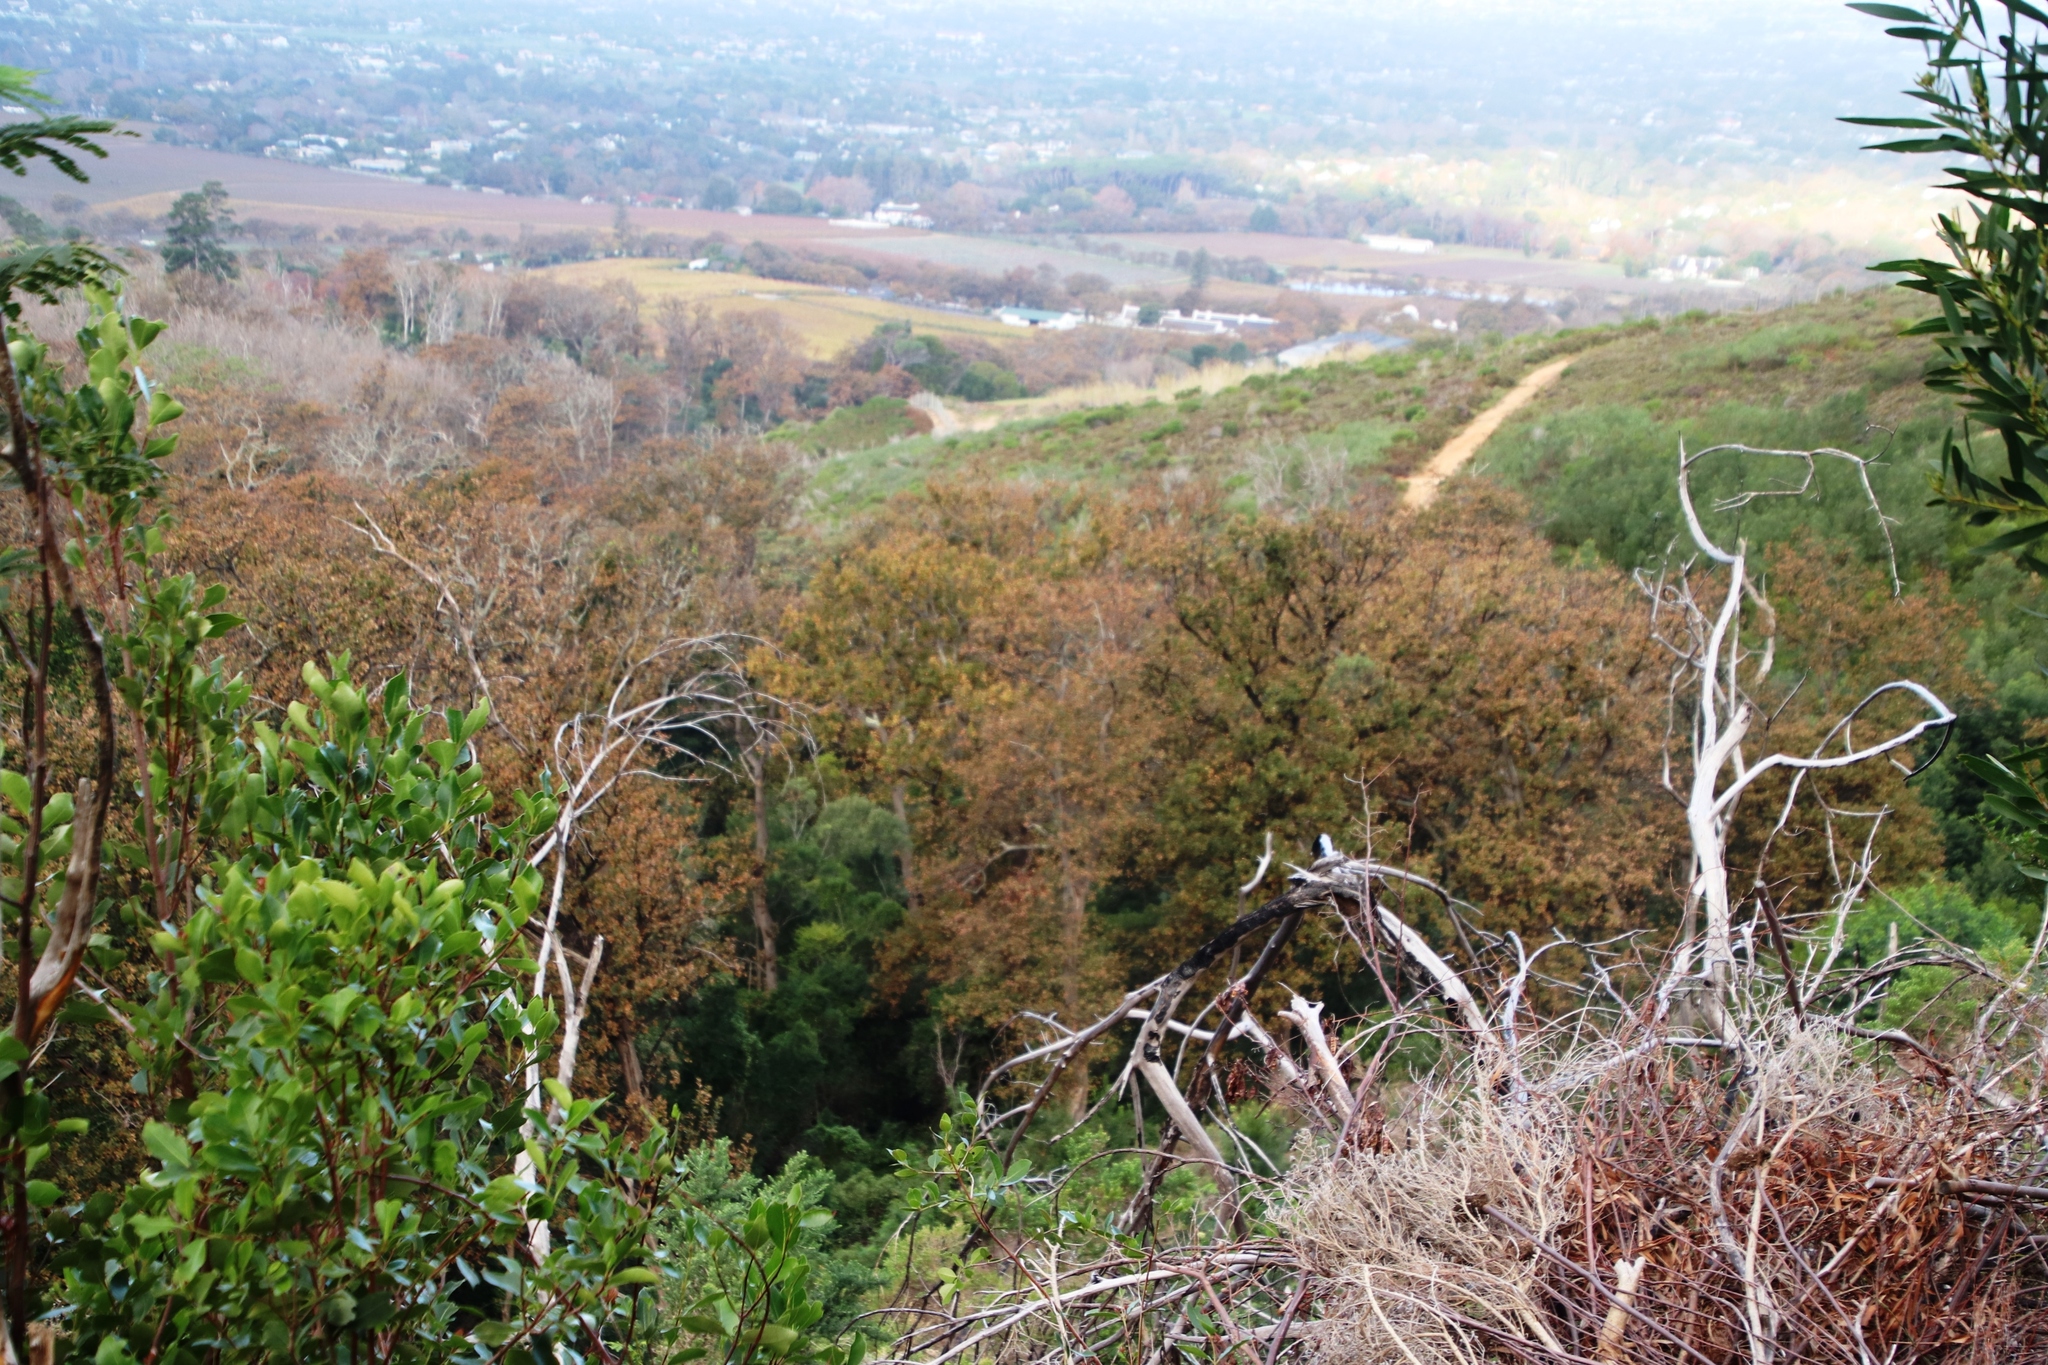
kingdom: Plantae
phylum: Tracheophyta
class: Magnoliopsida
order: Fagales
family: Fagaceae
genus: Quercus
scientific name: Quercus robur
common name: Pedunculate oak
